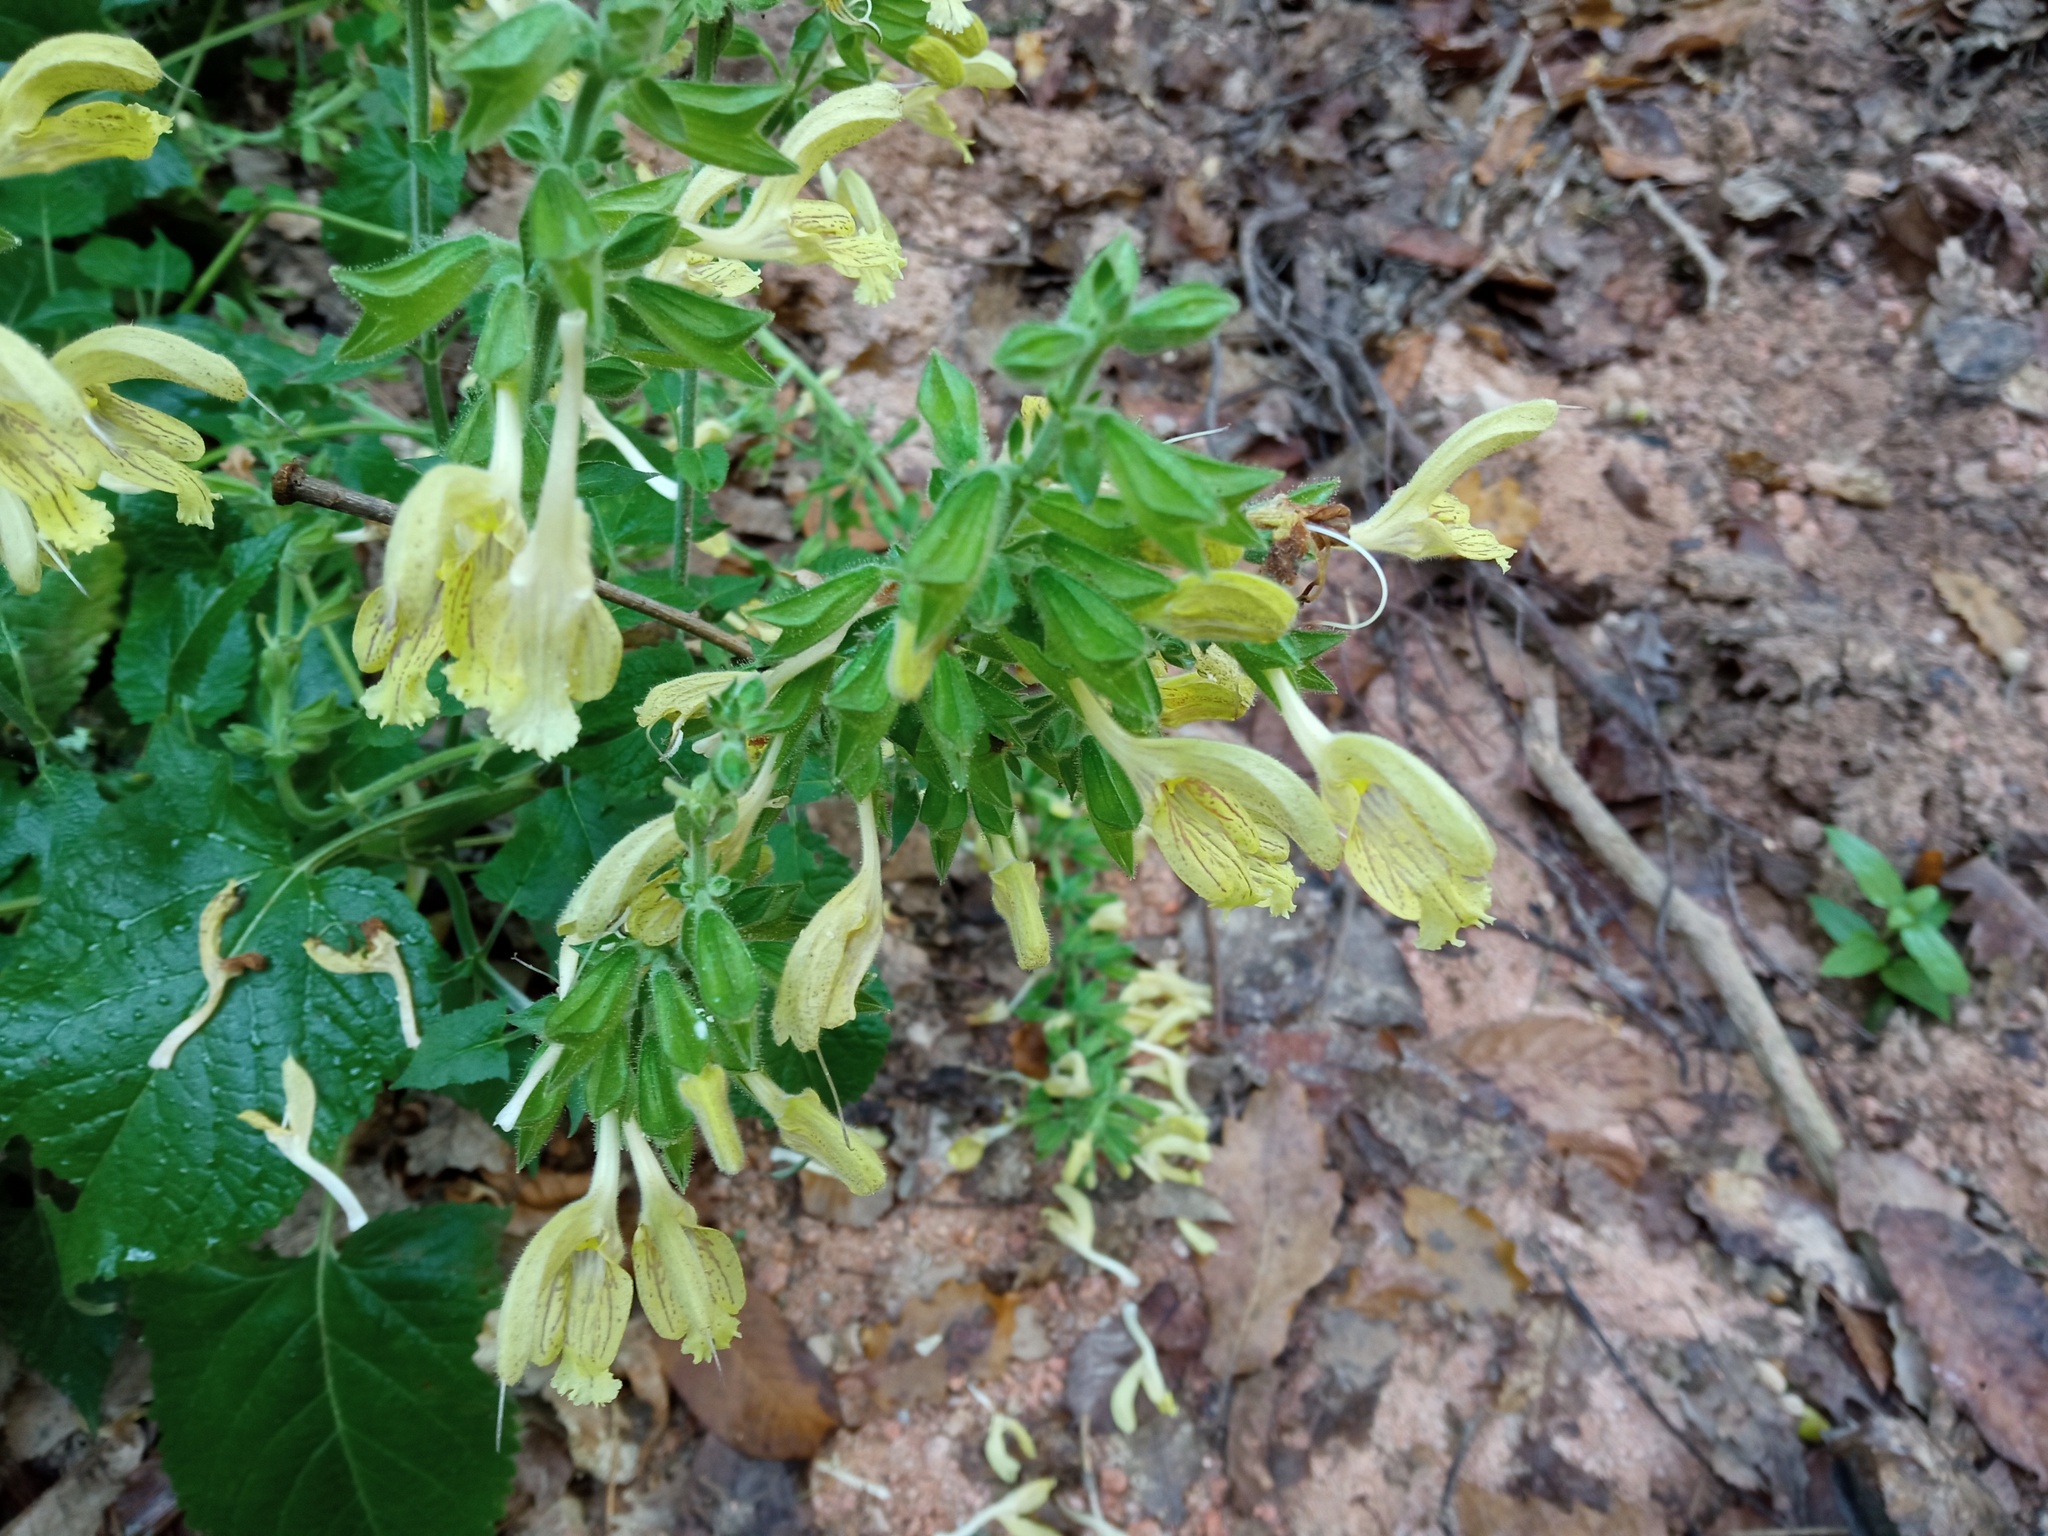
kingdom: Plantae
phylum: Tracheophyta
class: Magnoliopsida
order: Lamiales
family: Lamiaceae
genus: Salvia
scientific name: Salvia glutinosa
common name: Sticky clary
